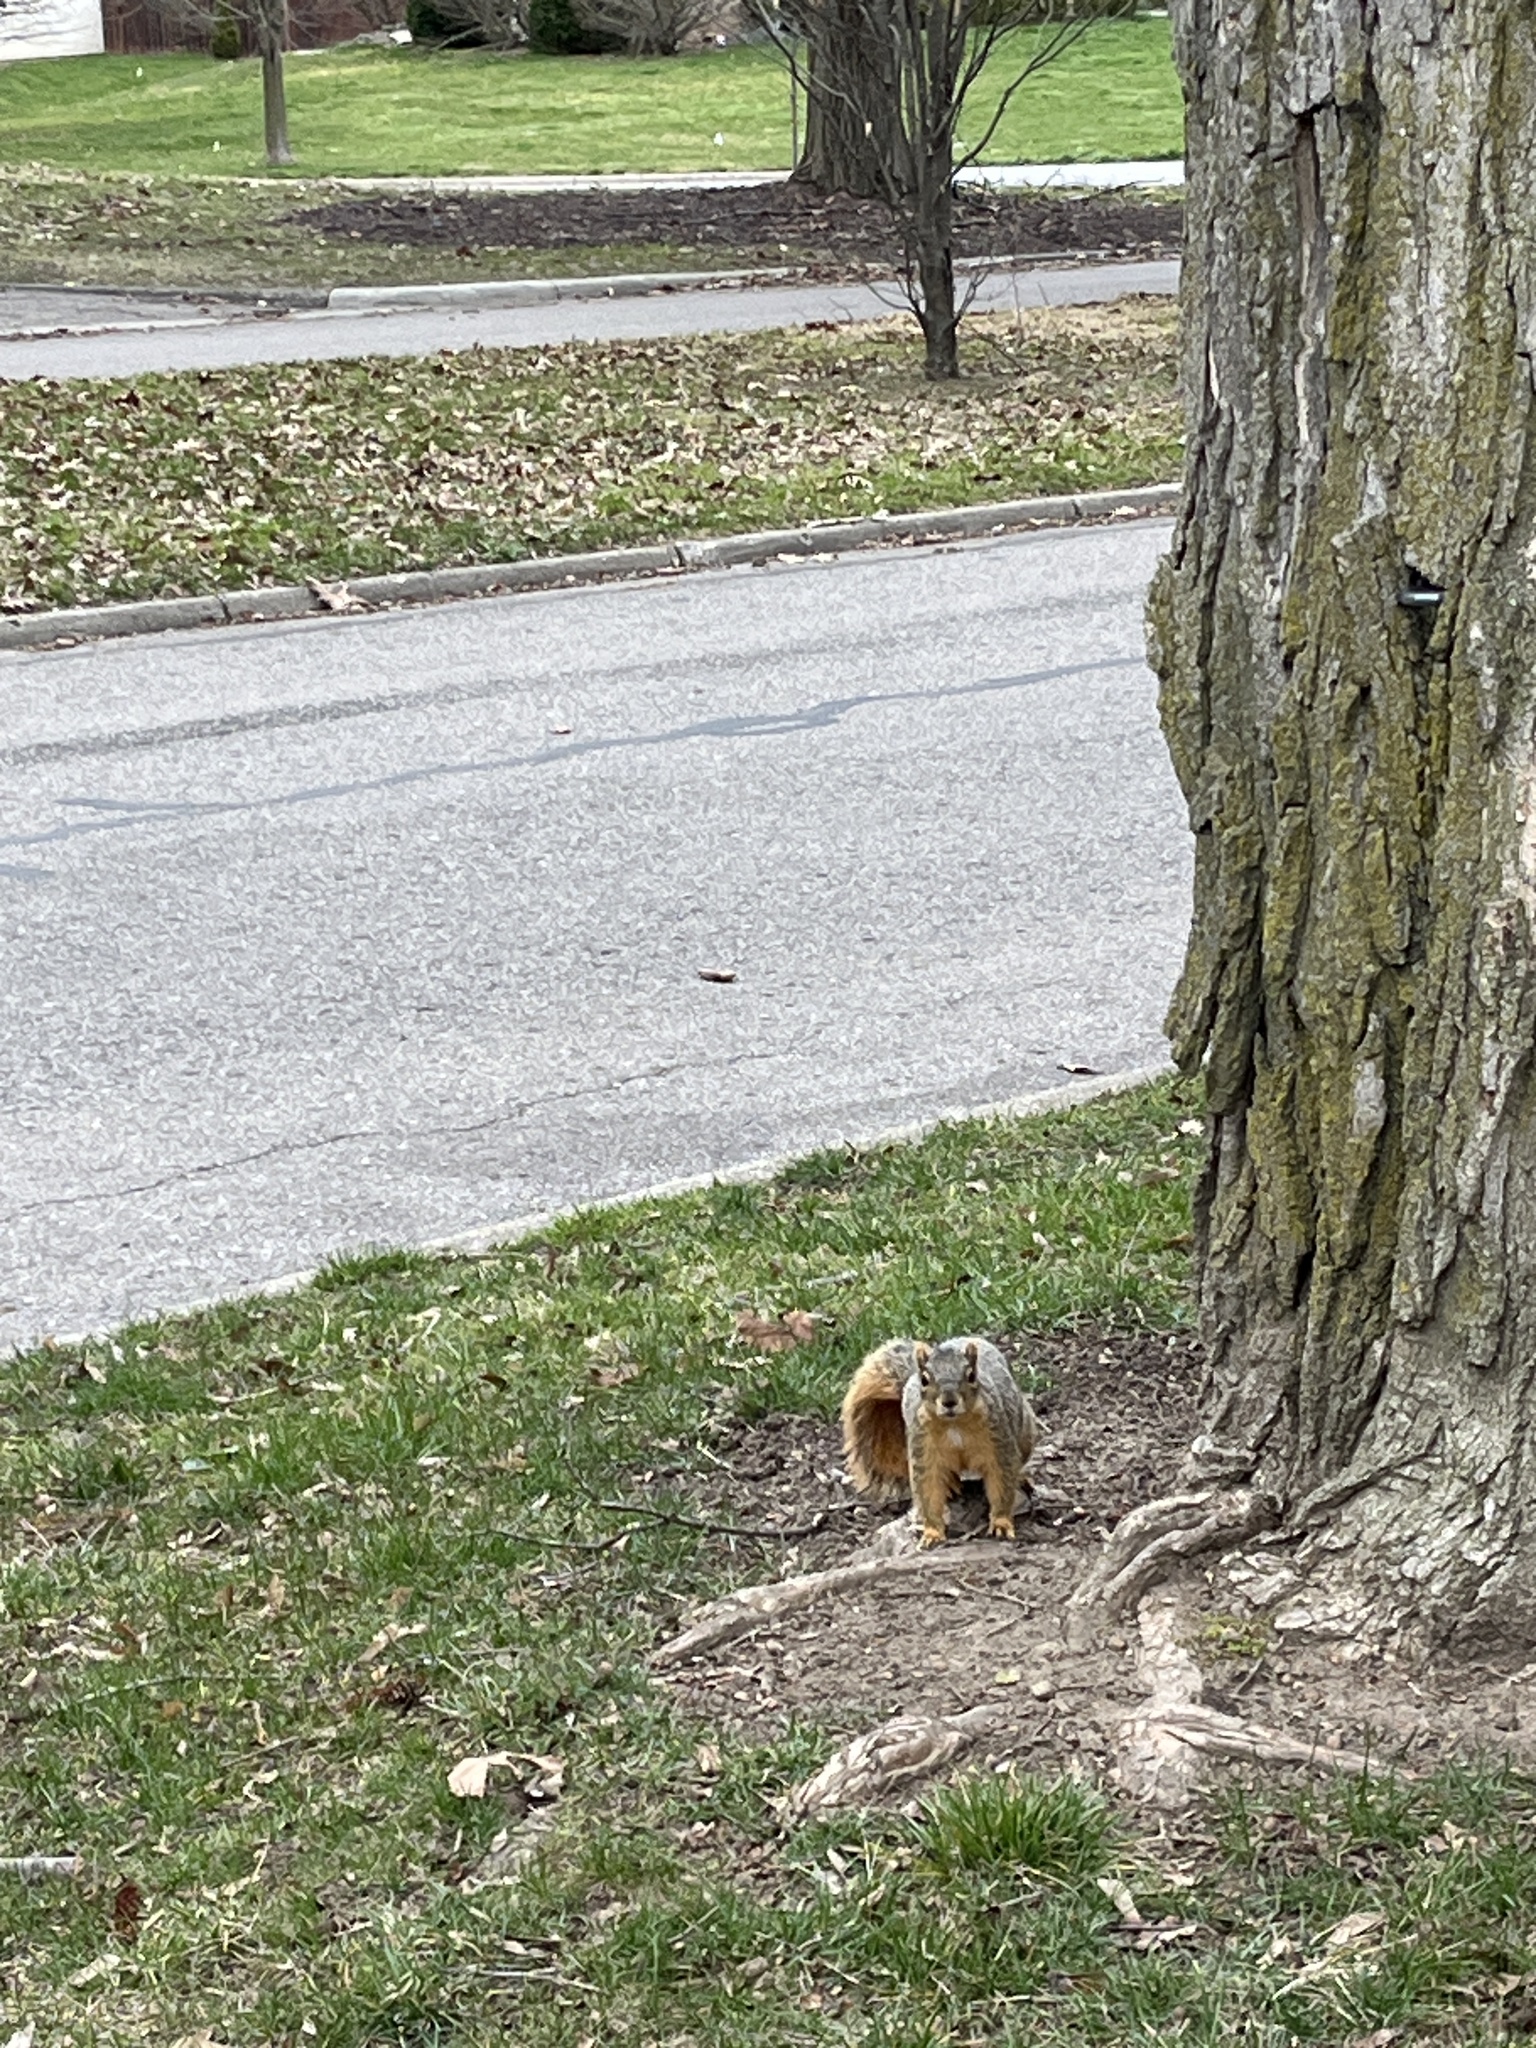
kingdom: Animalia
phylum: Chordata
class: Mammalia
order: Rodentia
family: Sciuridae
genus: Sciurus
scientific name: Sciurus niger
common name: Fox squirrel
